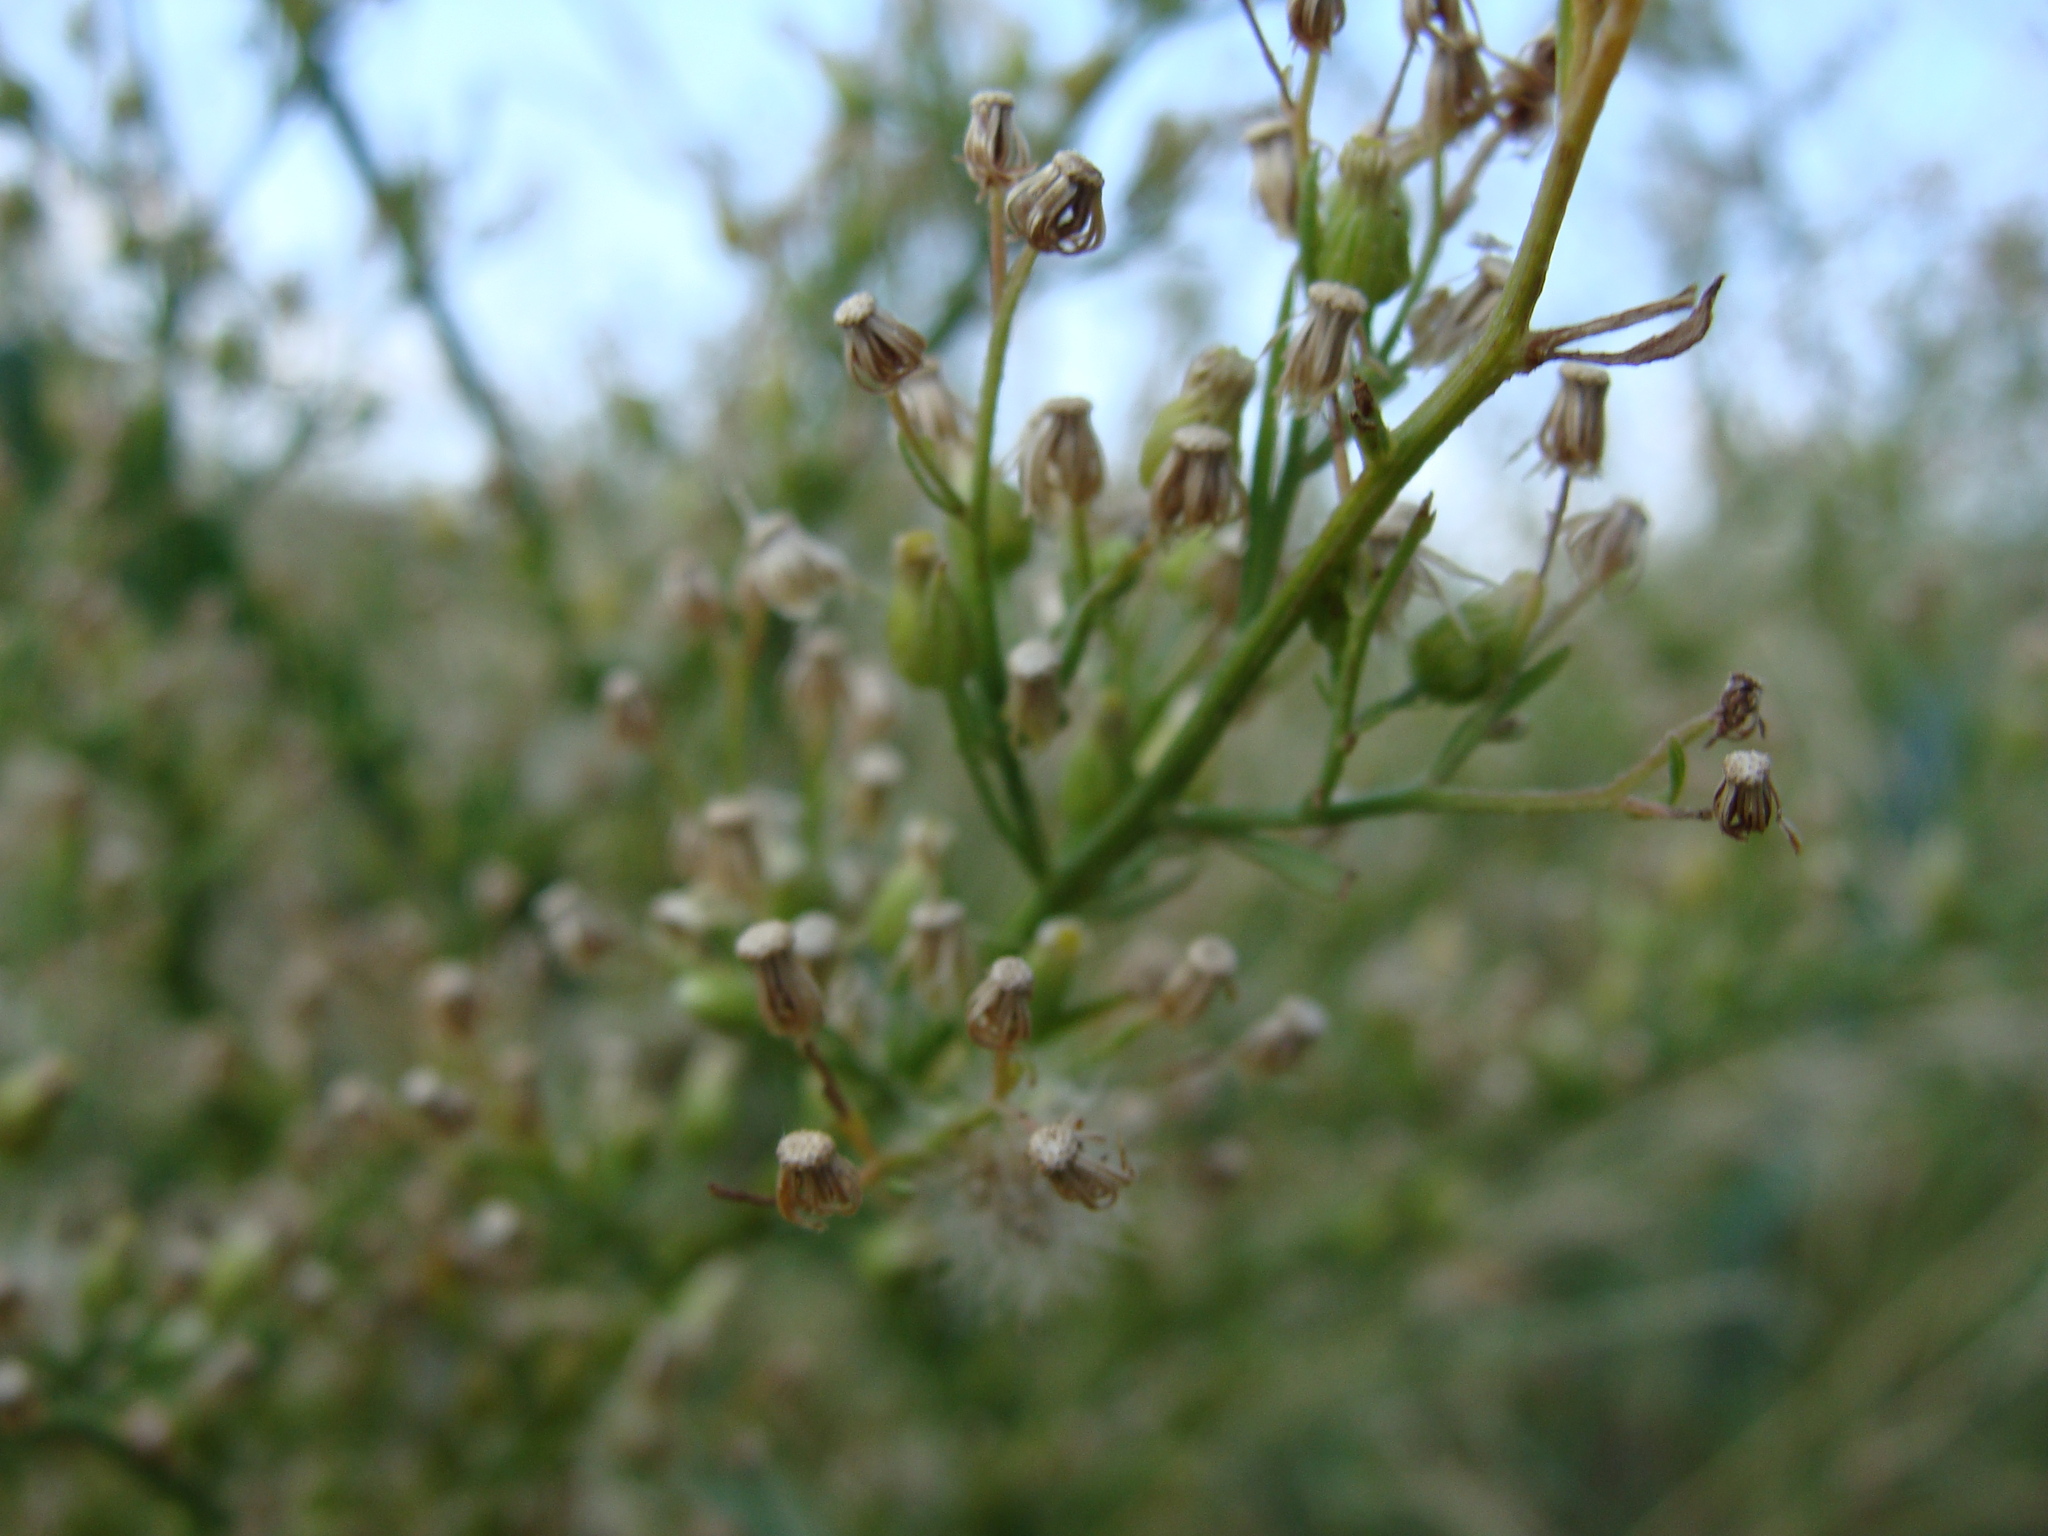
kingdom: Plantae
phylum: Tracheophyta
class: Magnoliopsida
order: Asterales
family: Asteraceae
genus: Erigeron
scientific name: Erigeron canadensis
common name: Canadian fleabane
